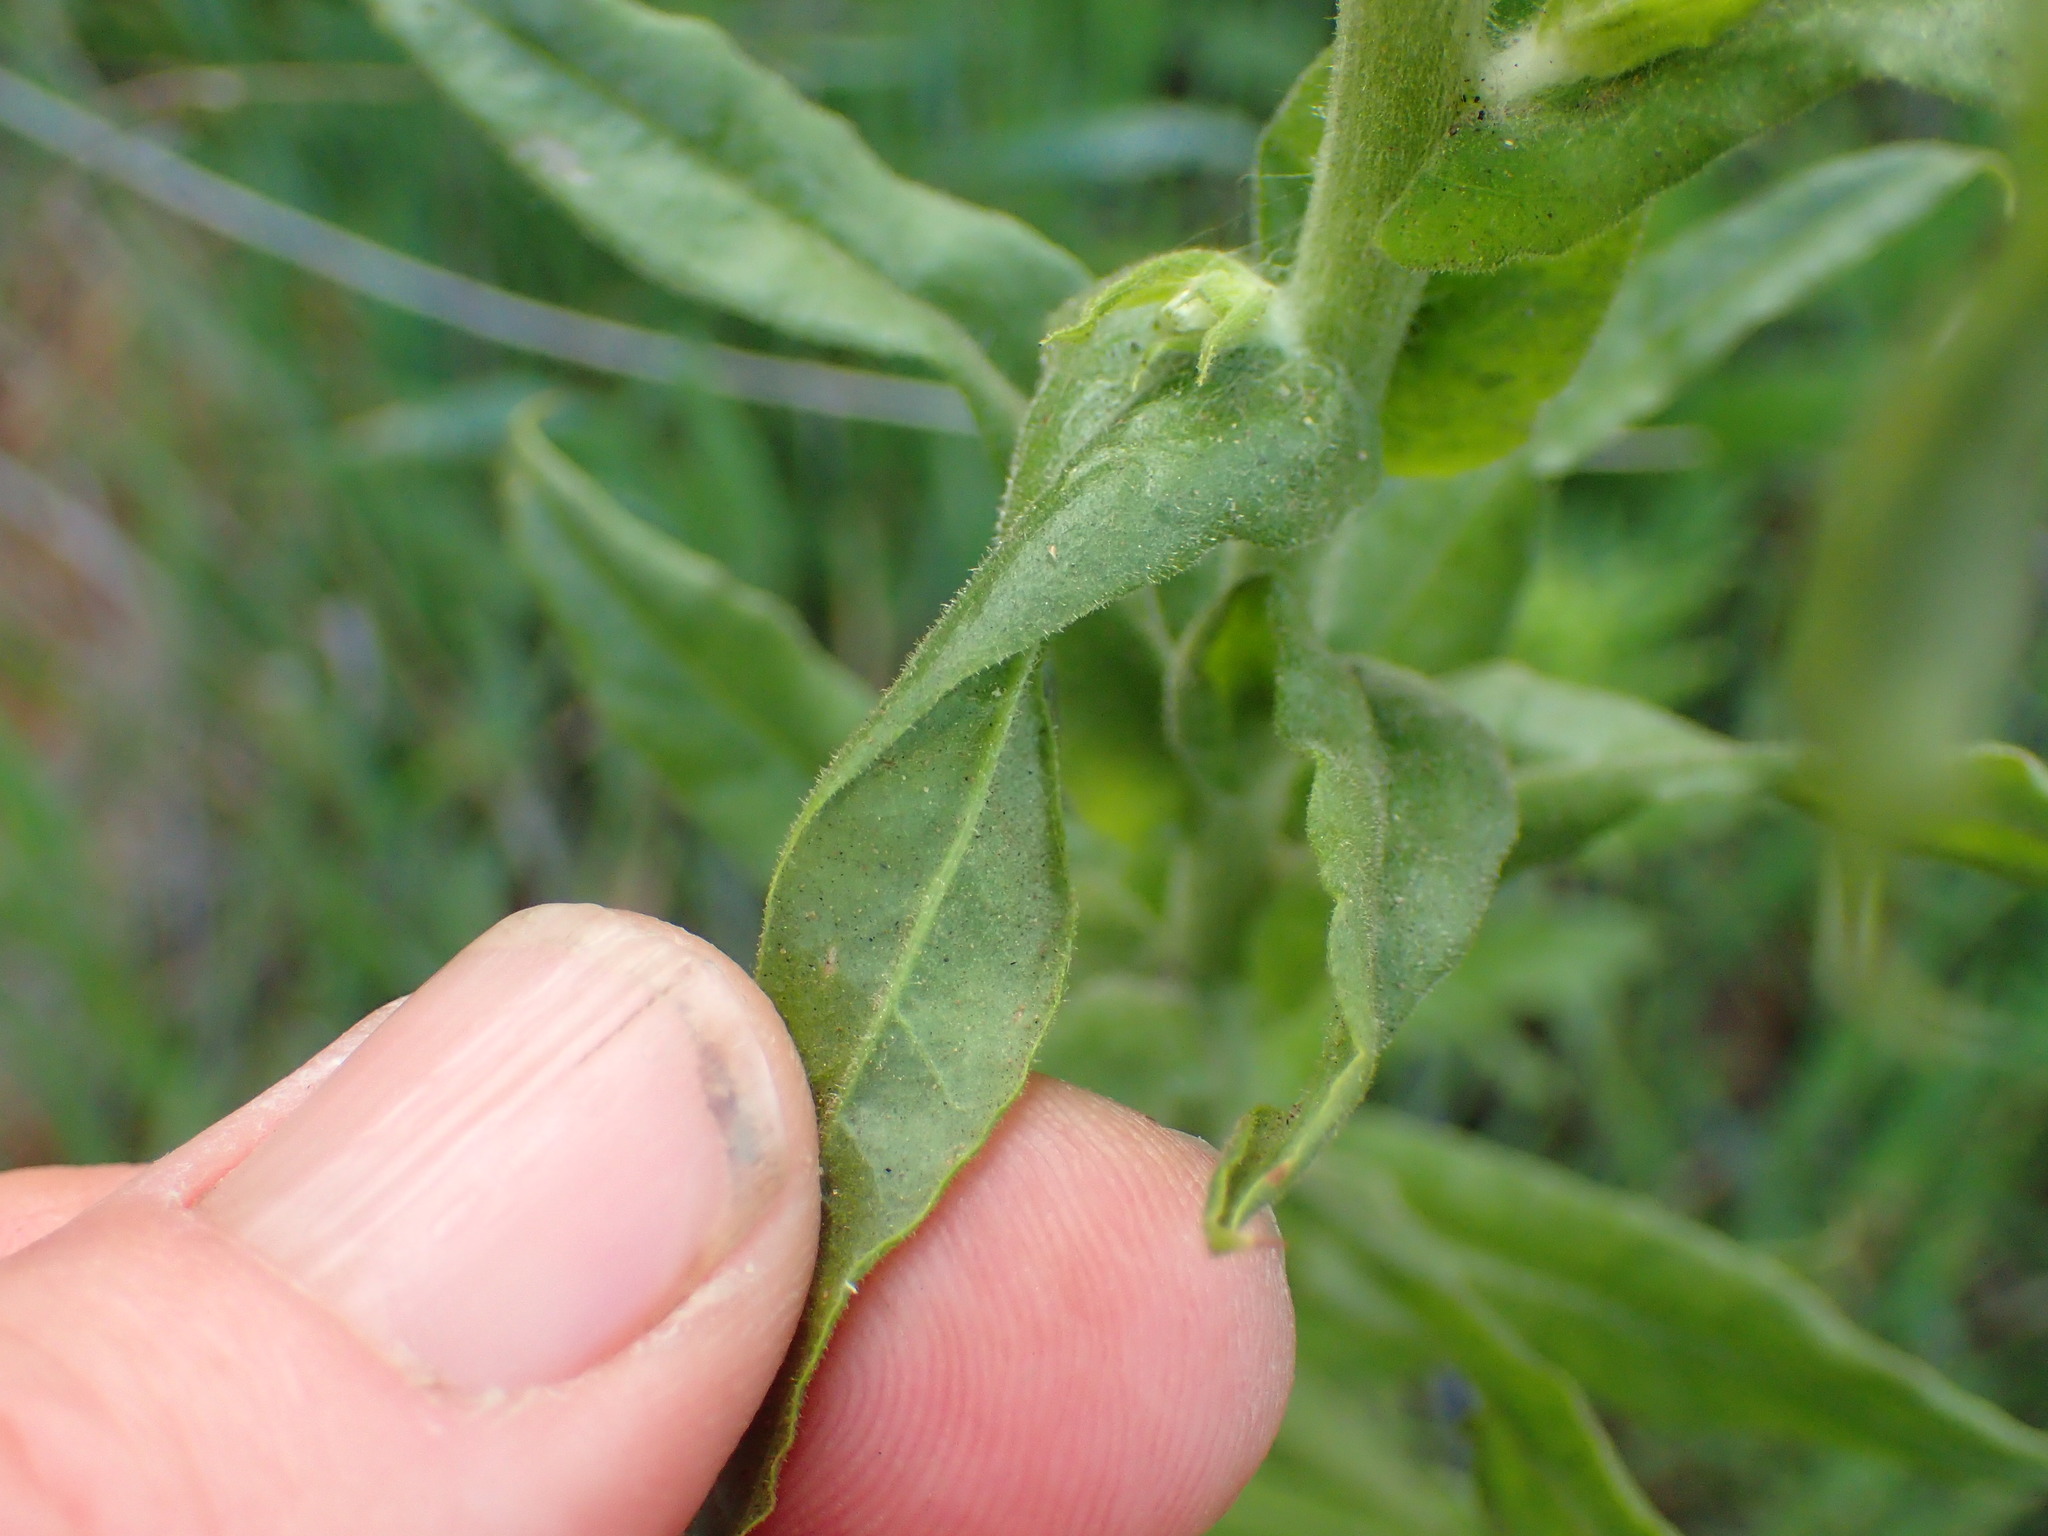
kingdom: Plantae
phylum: Tracheophyta
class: Magnoliopsida
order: Asterales
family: Asteraceae
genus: Pseudognaphalium
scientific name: Pseudognaphalium californicum
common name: California rabbit-tobacco
